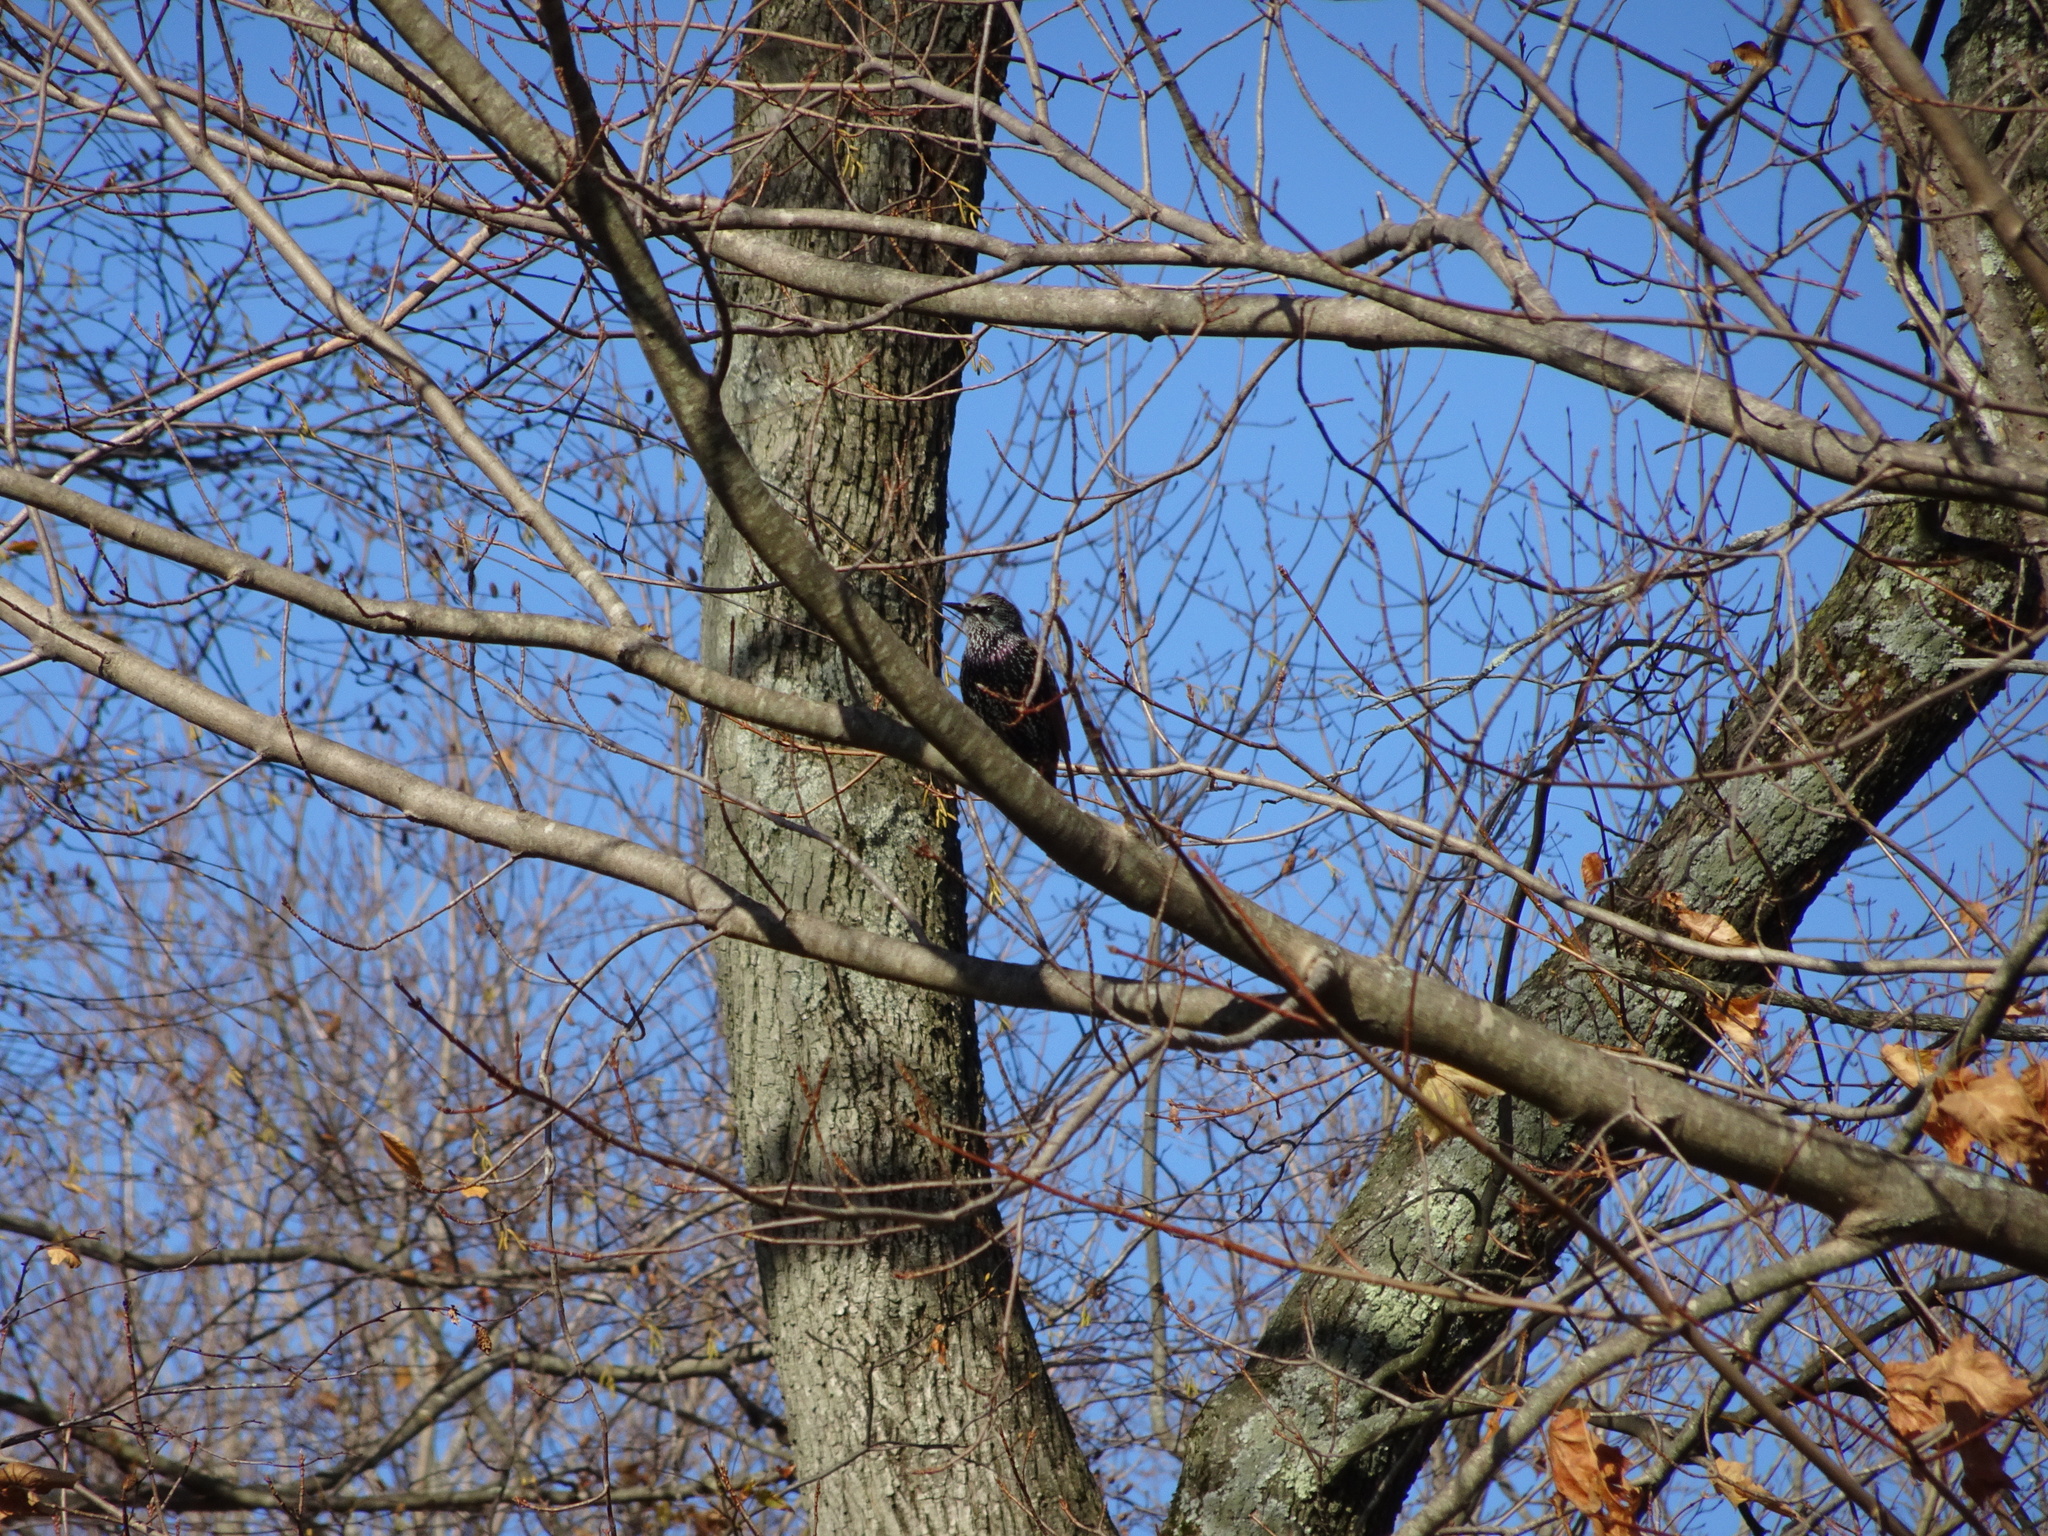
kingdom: Animalia
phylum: Chordata
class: Aves
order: Passeriformes
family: Sturnidae
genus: Sturnus
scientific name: Sturnus vulgaris
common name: Common starling
